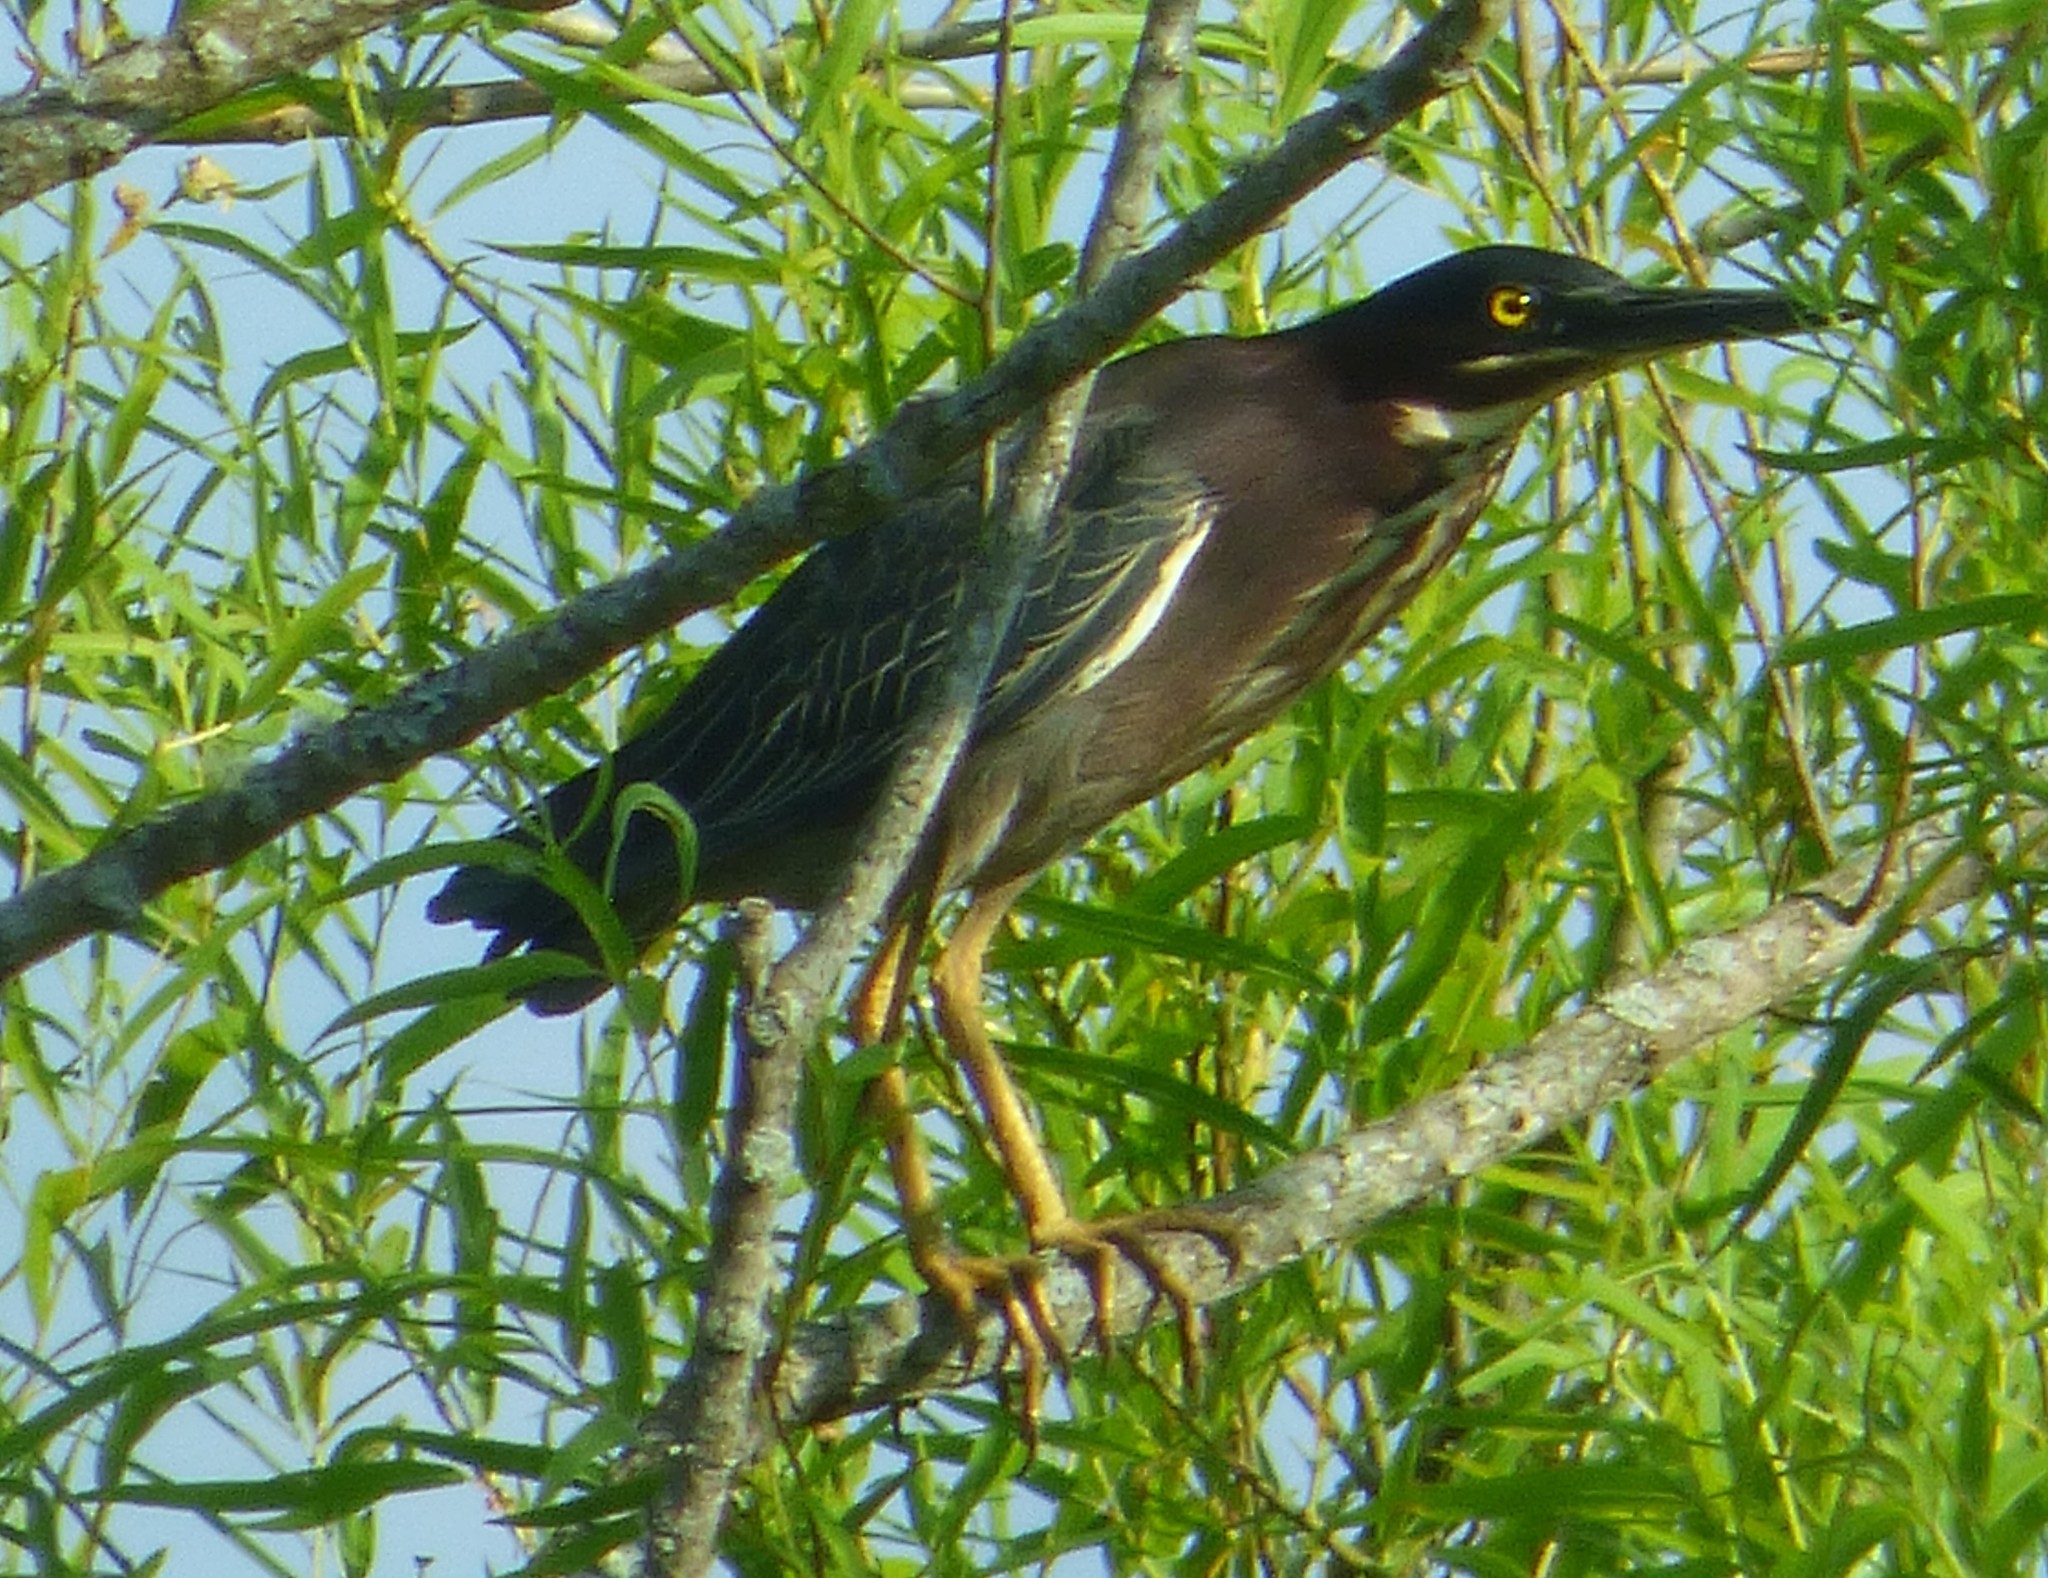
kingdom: Animalia
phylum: Chordata
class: Aves
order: Pelecaniformes
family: Ardeidae
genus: Butorides
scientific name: Butorides virescens
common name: Green heron
